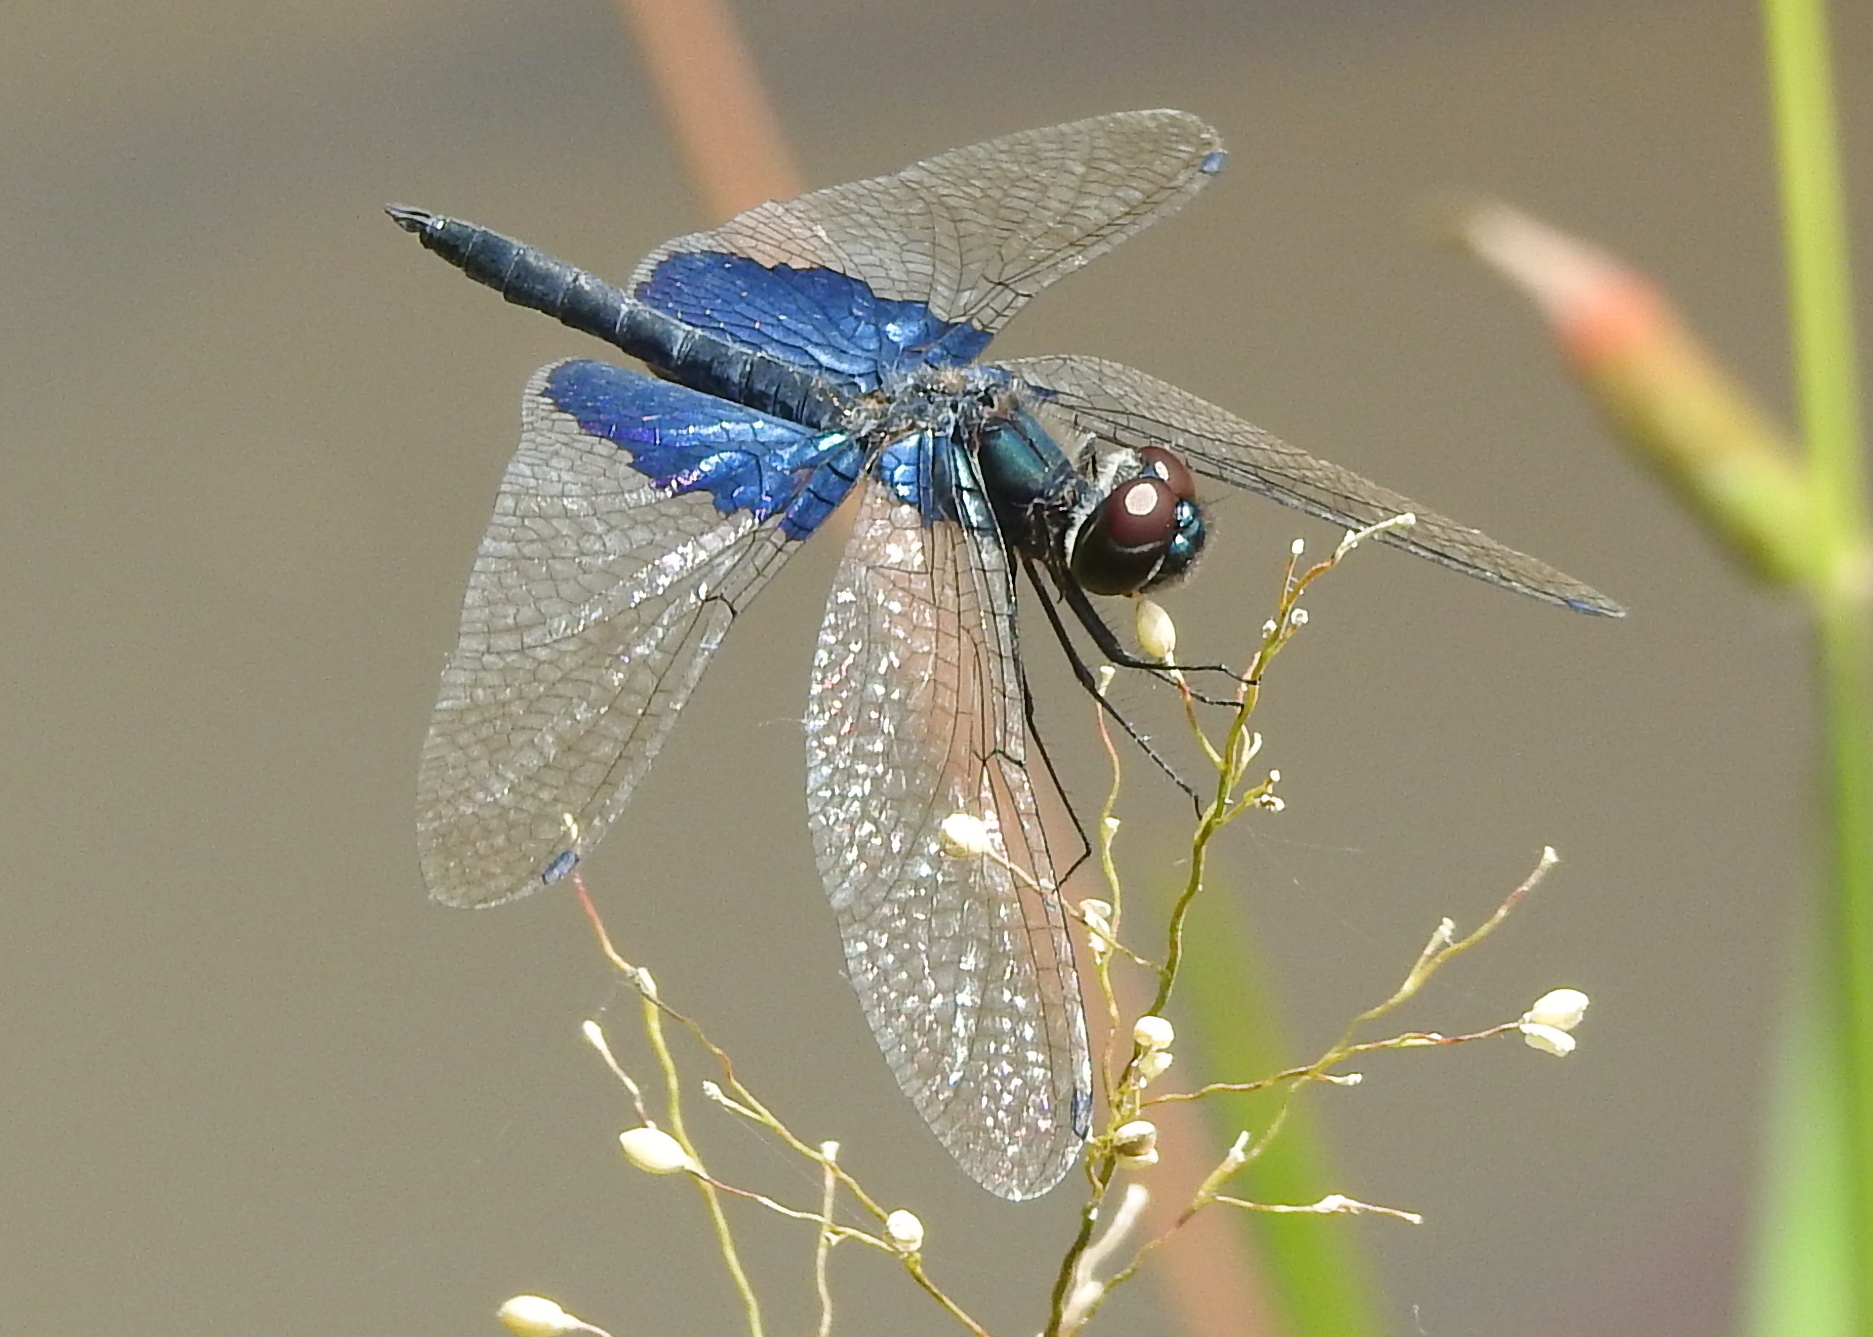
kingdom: Animalia
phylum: Arthropoda
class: Insecta
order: Odonata
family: Libellulidae
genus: Rhyothemis
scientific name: Rhyothemis triangularis
